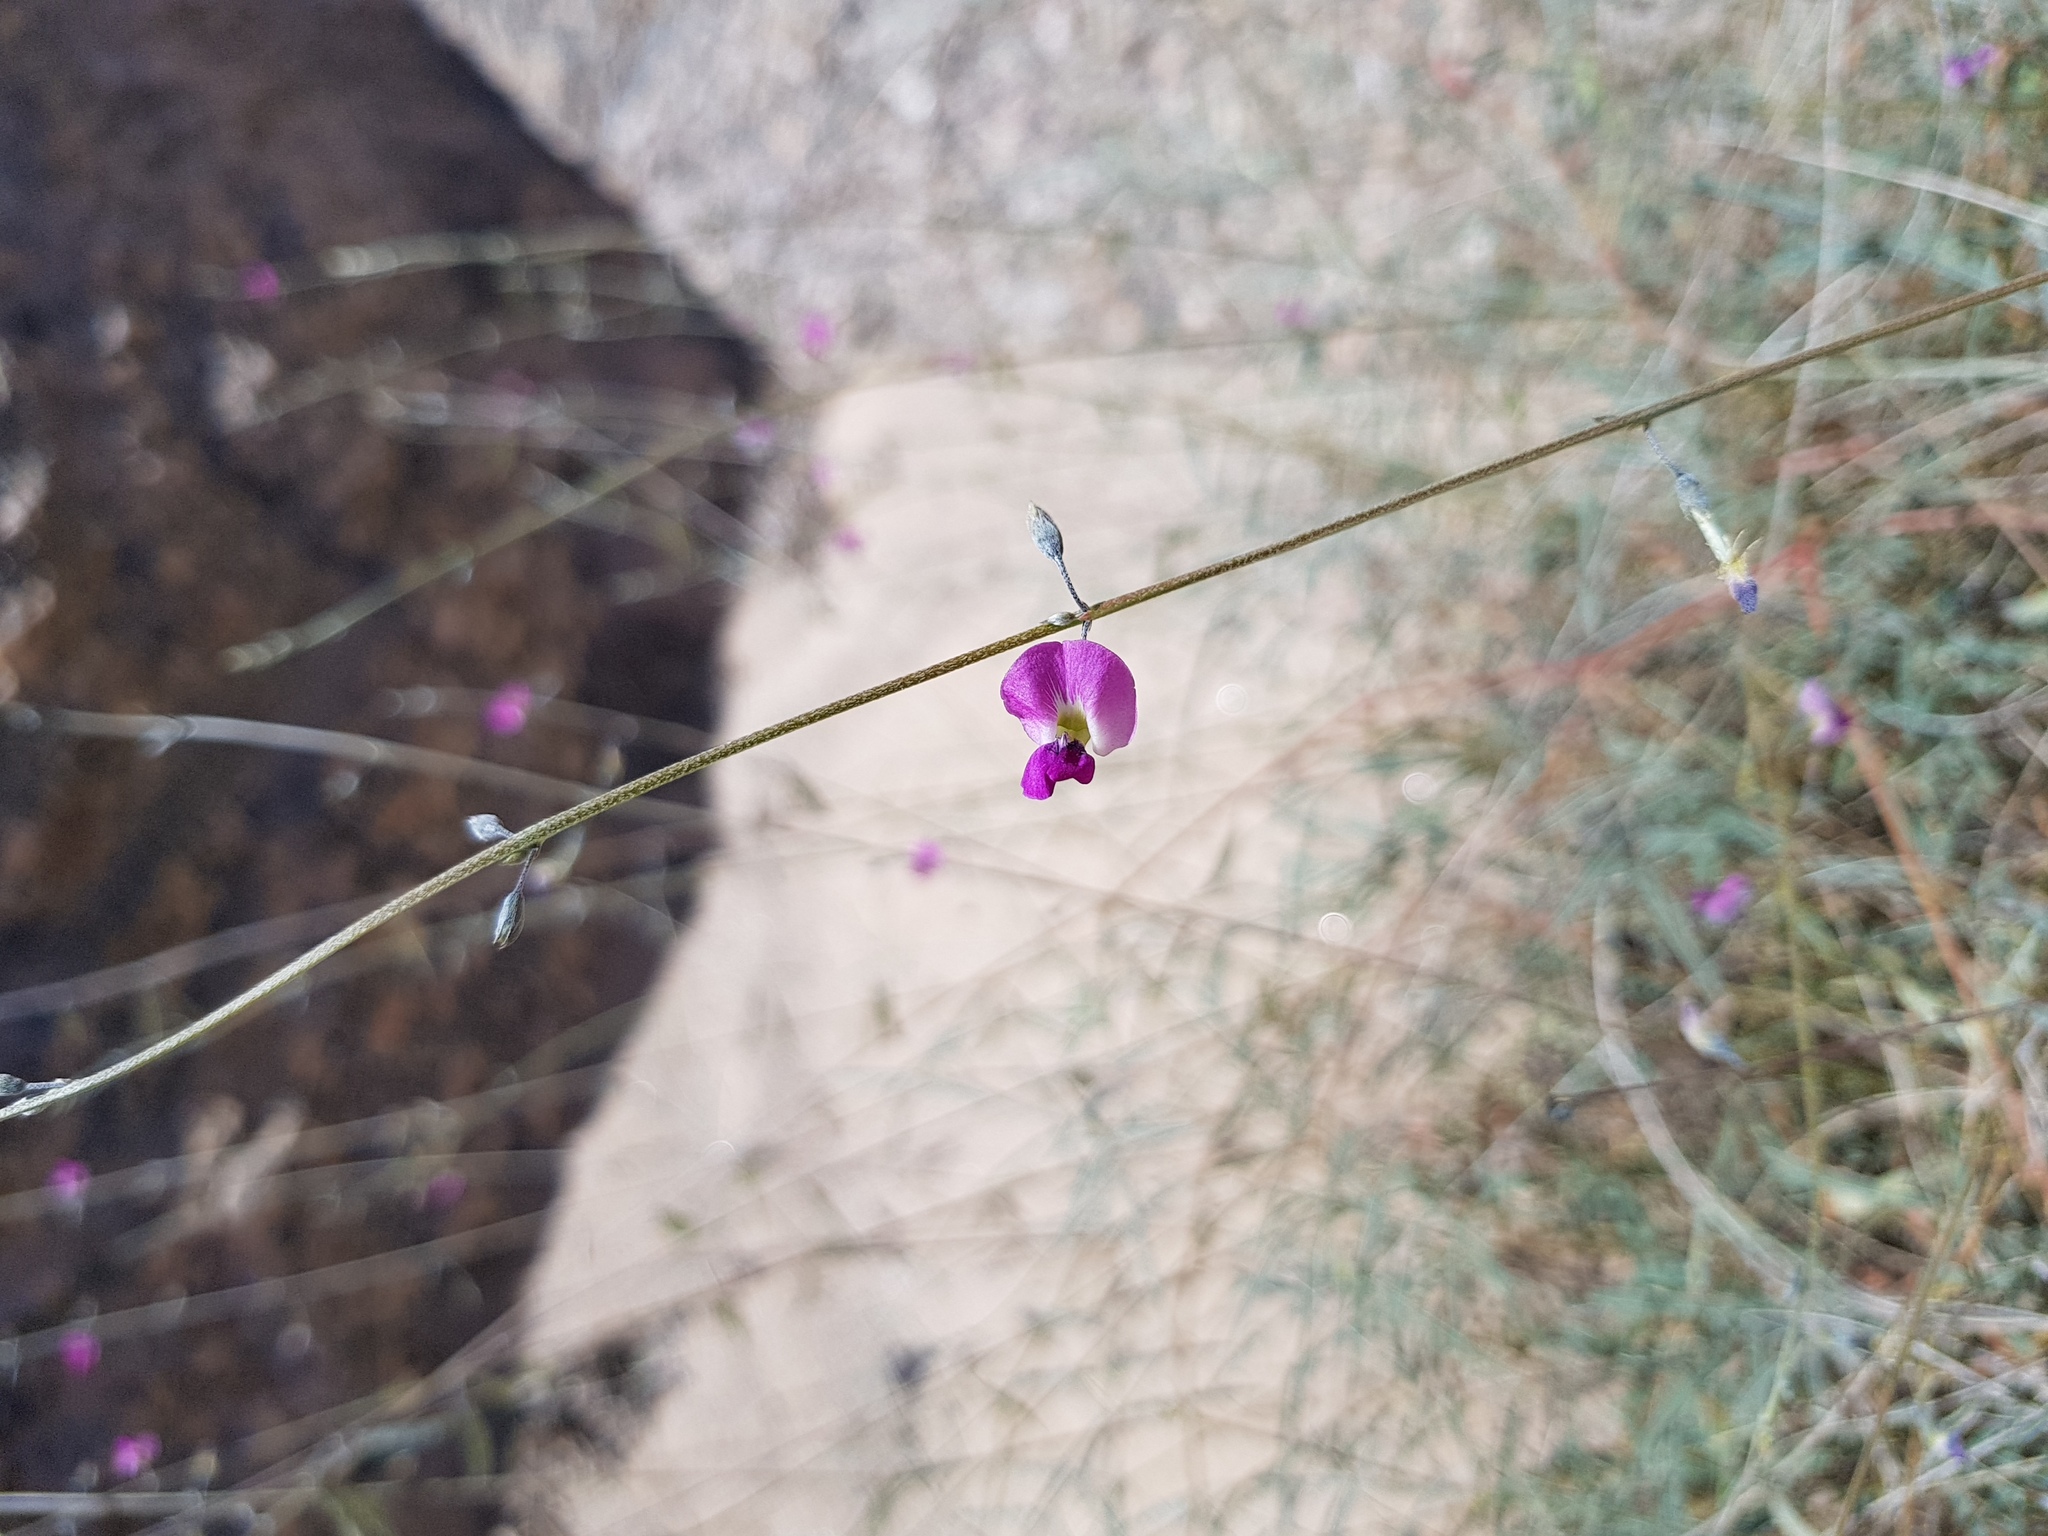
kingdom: Plantae
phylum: Tracheophyta
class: Magnoliopsida
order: Fabales
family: Fabaceae
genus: Tephrosia
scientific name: Tephrosia dregeana
